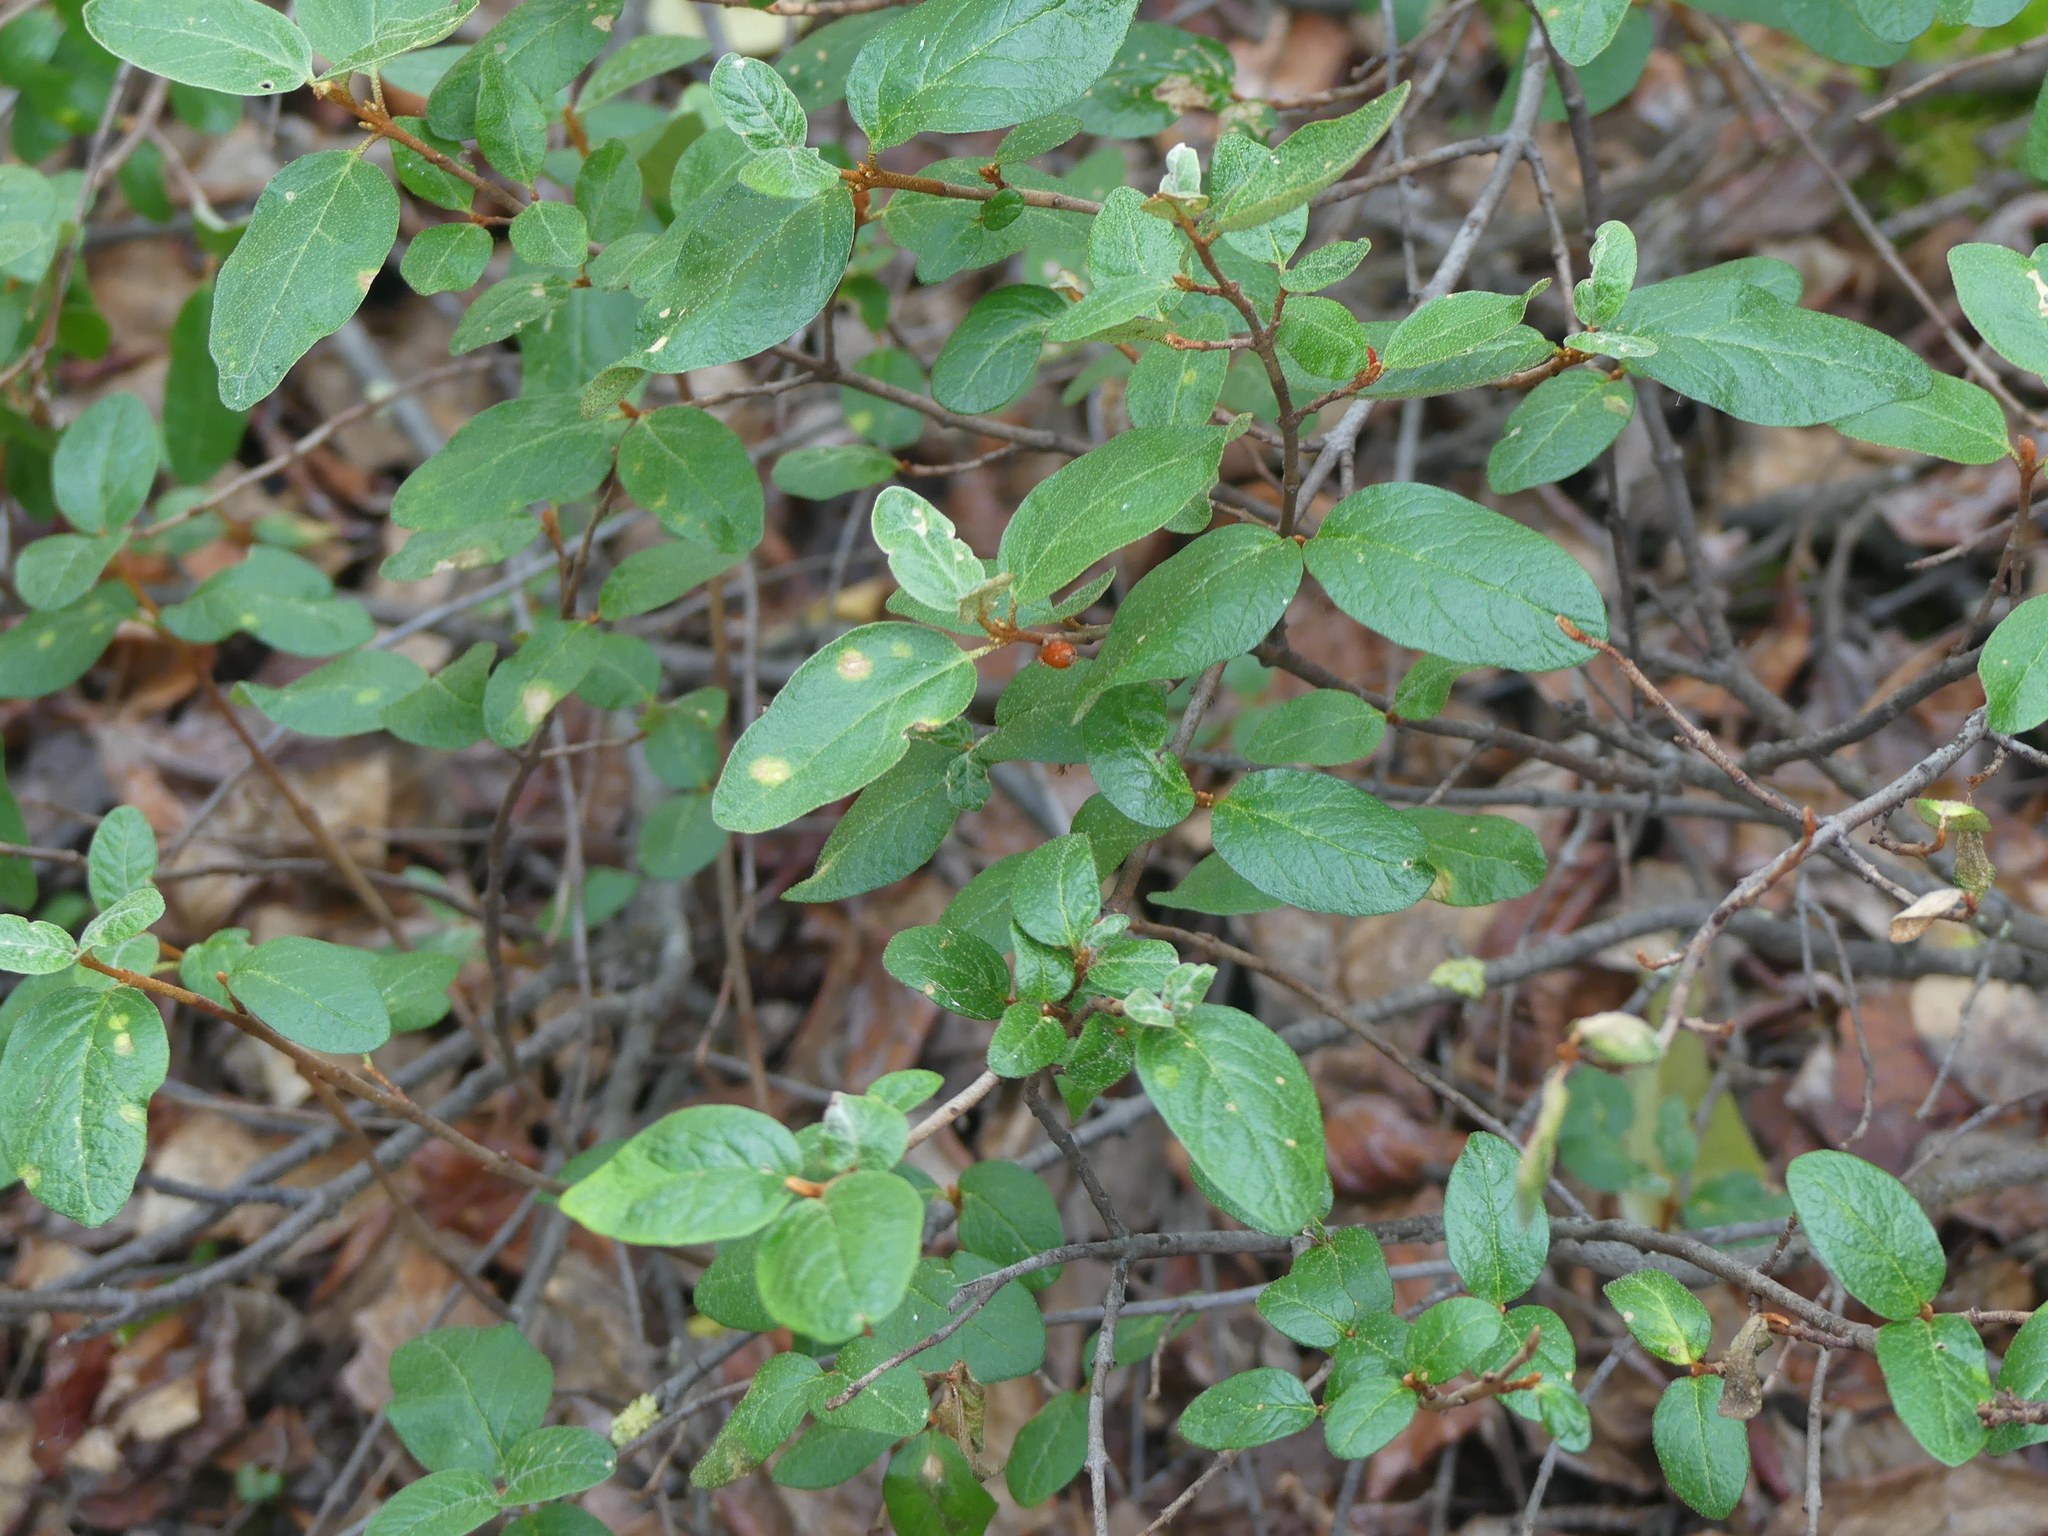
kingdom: Plantae
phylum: Tracheophyta
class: Magnoliopsida
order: Rosales
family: Elaeagnaceae
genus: Shepherdia
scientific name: Shepherdia canadensis
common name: Soapberry
